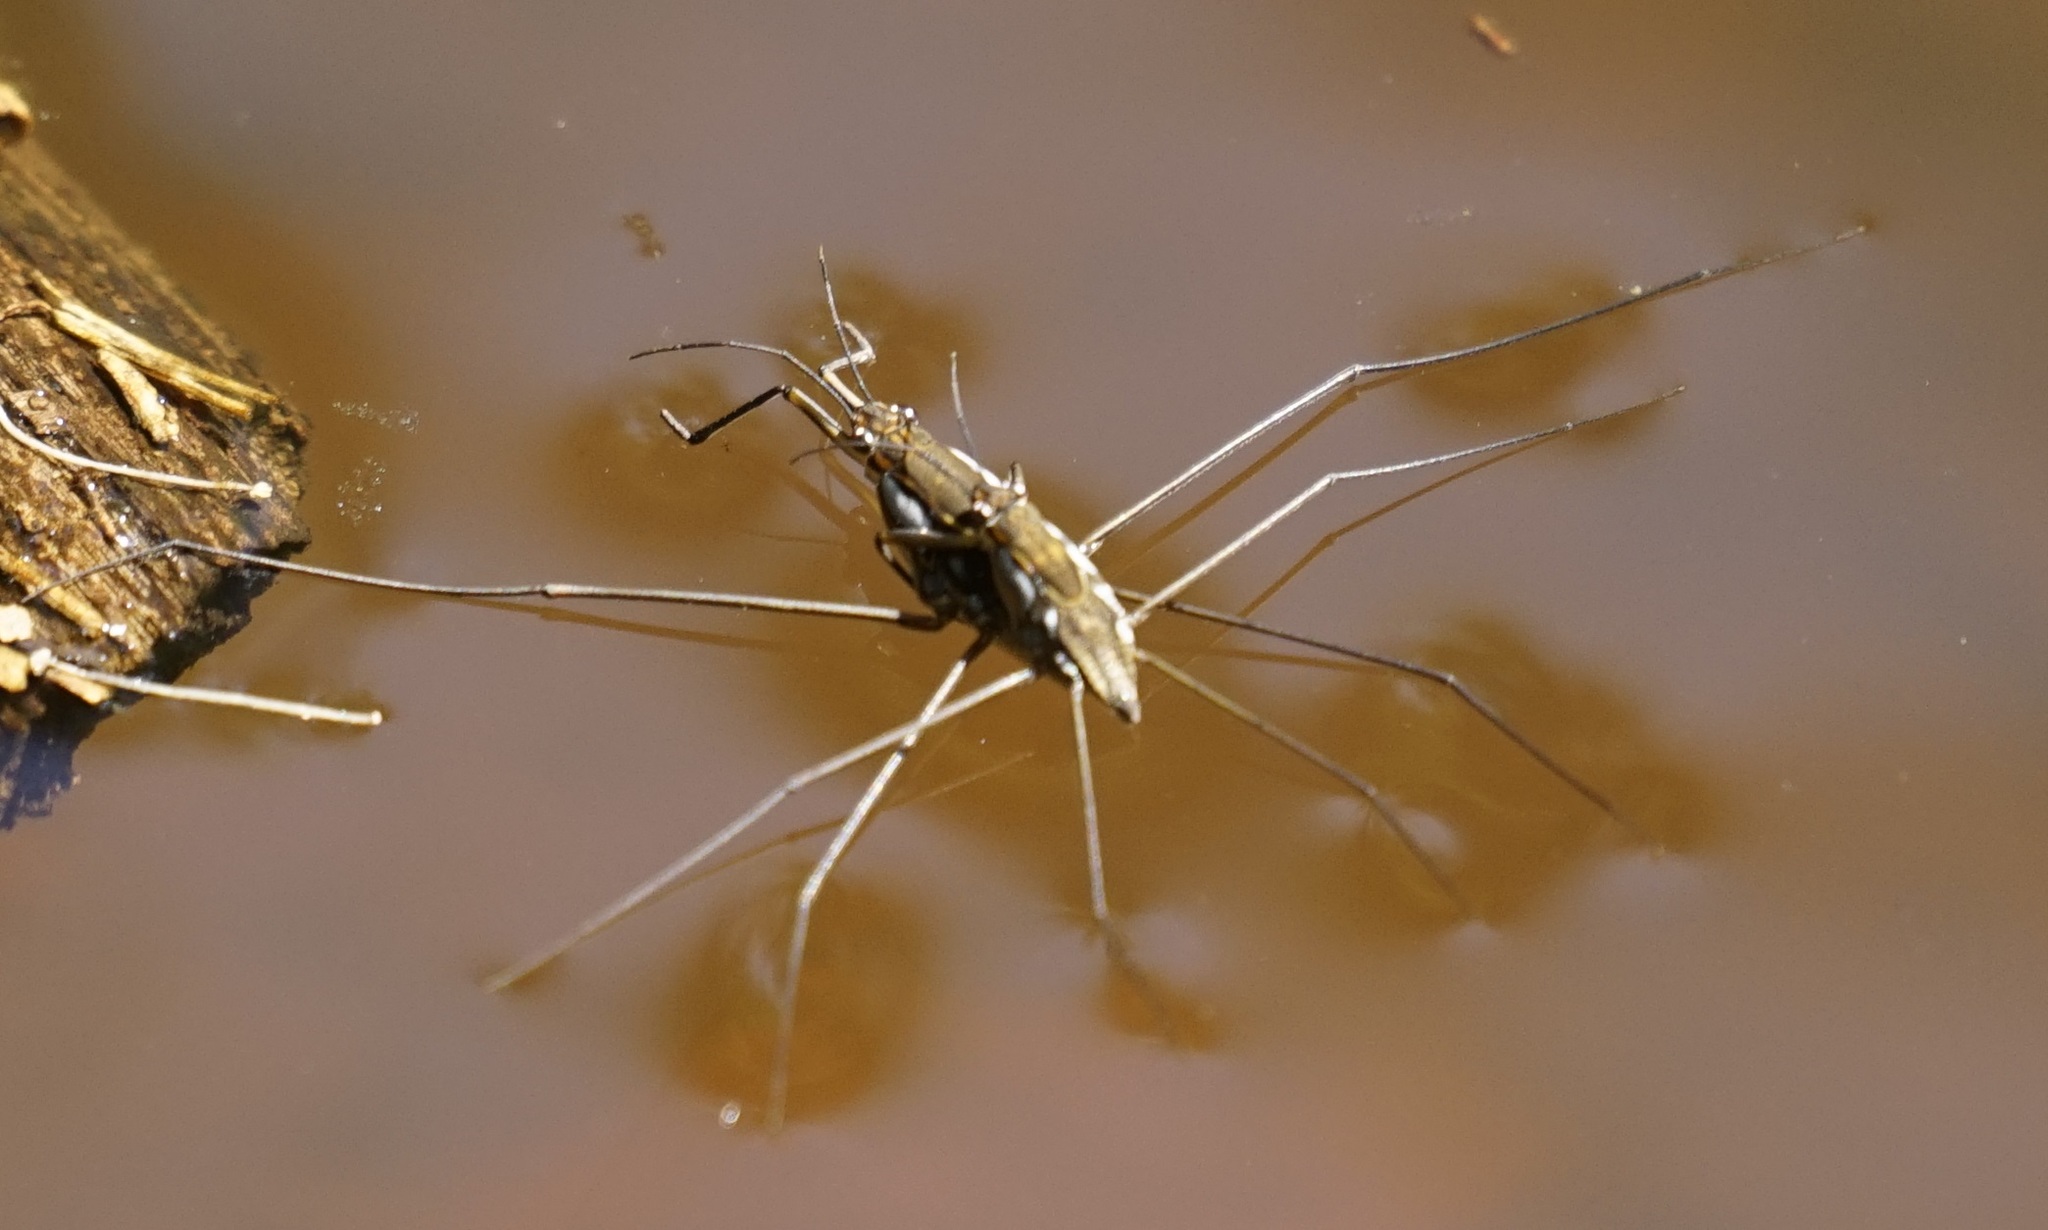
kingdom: Animalia
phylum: Arthropoda
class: Insecta
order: Hemiptera
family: Gerridae
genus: Tenagogerris
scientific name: Tenagogerris euphrosyne
